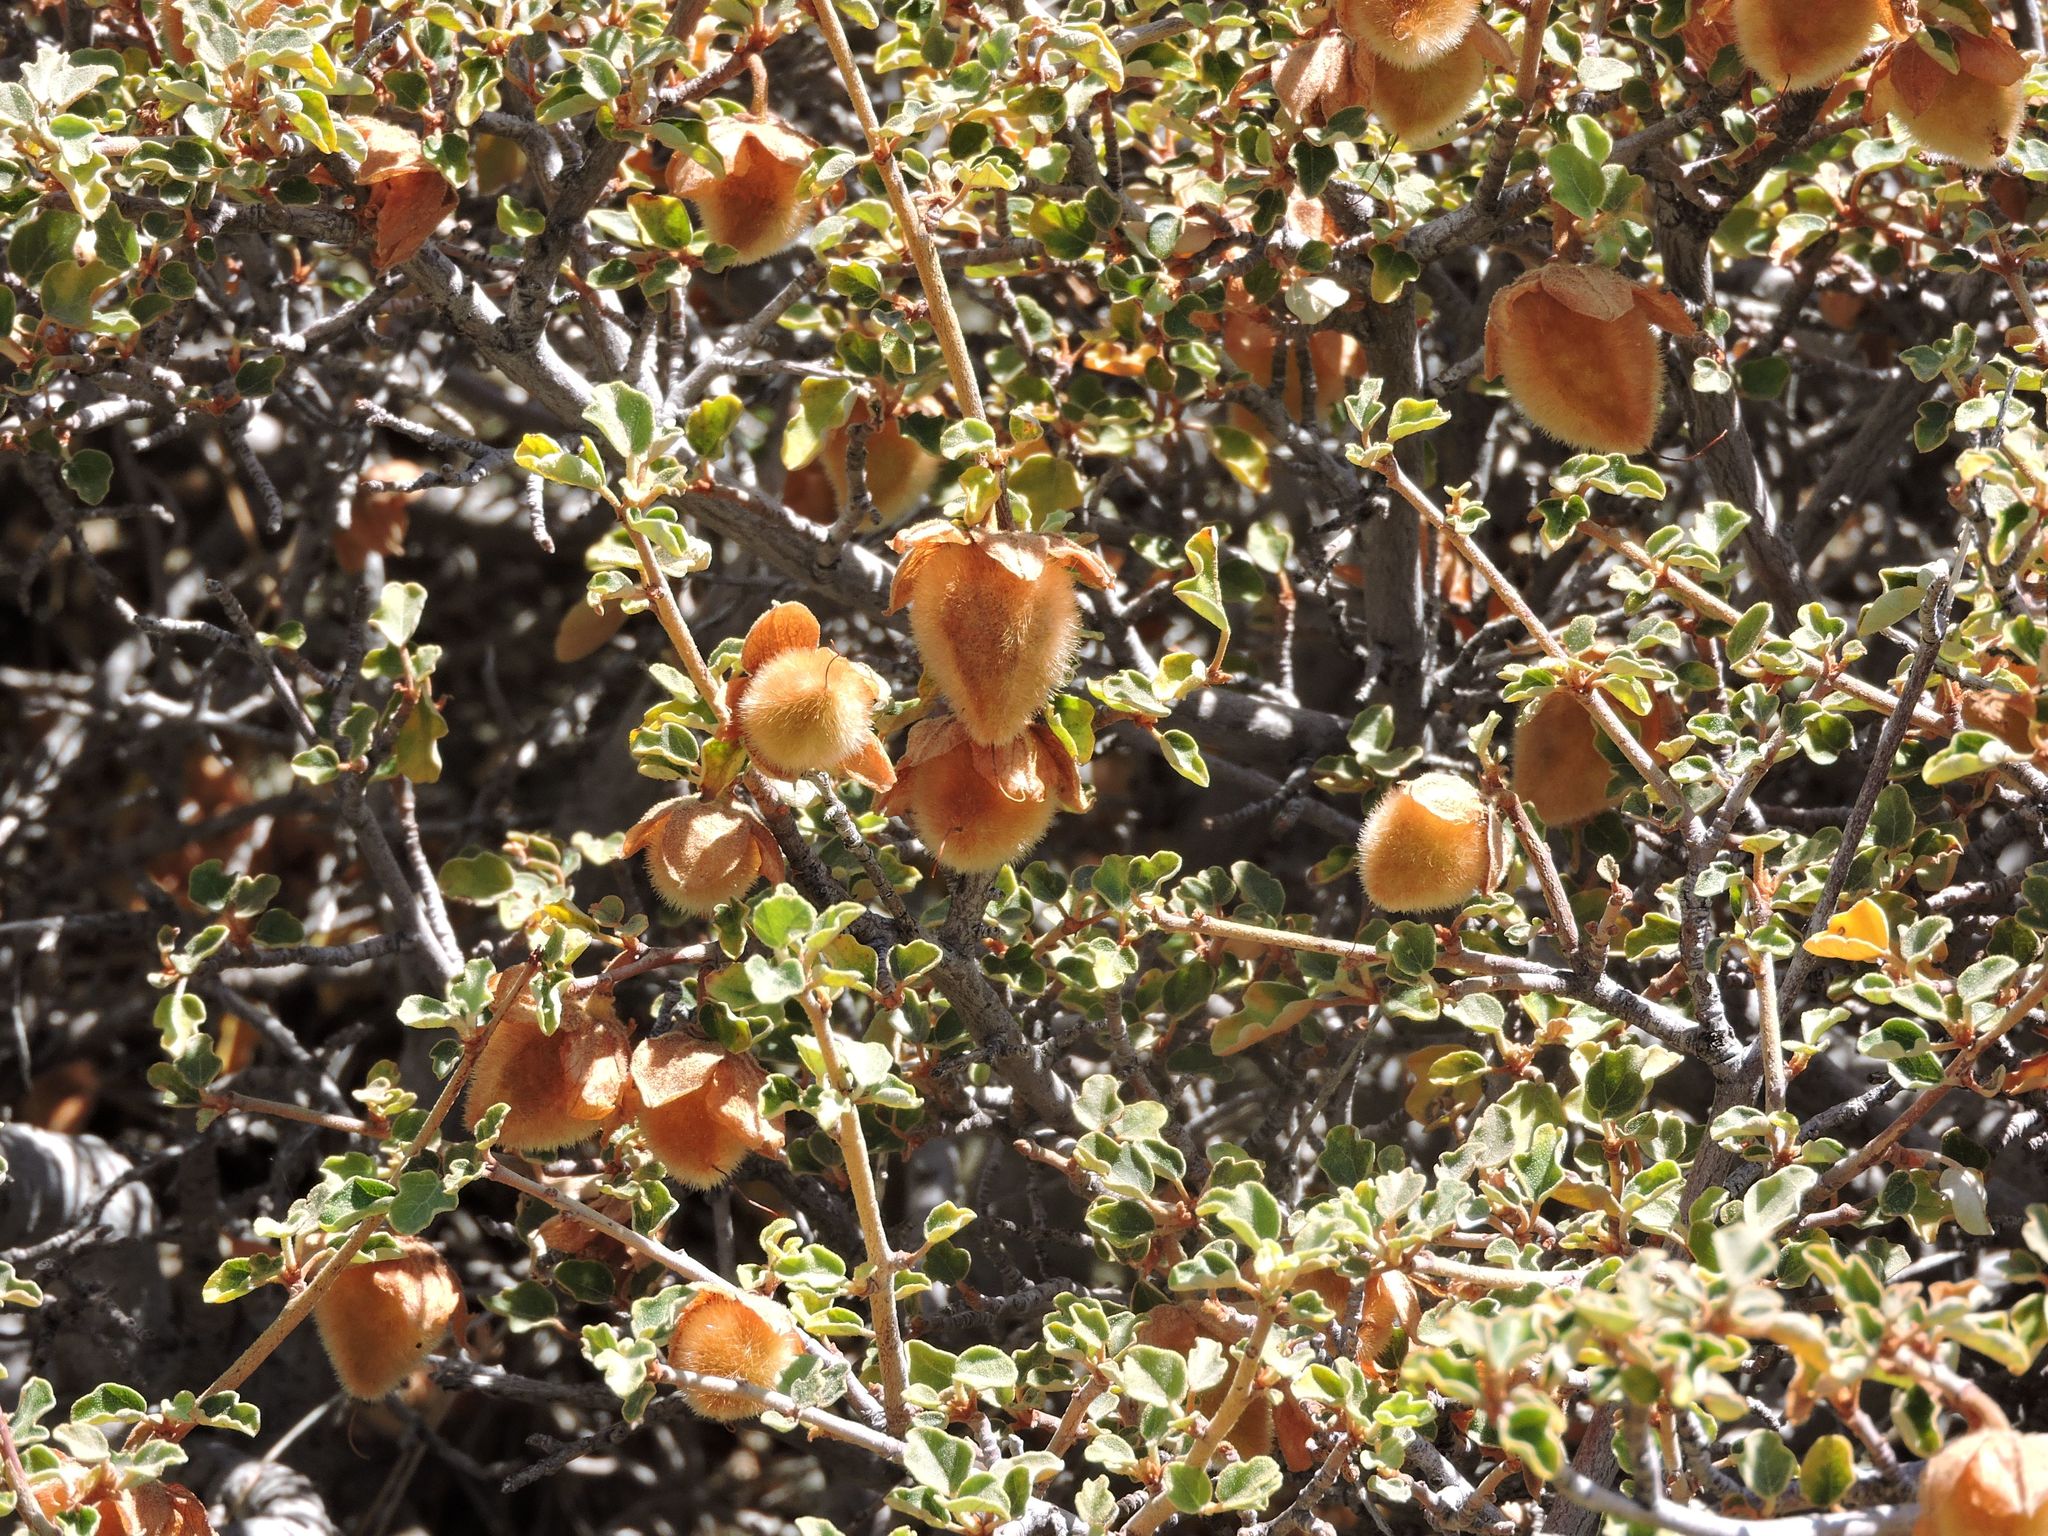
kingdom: Plantae
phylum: Tracheophyta
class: Magnoliopsida
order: Malvales
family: Malvaceae
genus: Fremontodendron
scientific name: Fremontodendron californicum
